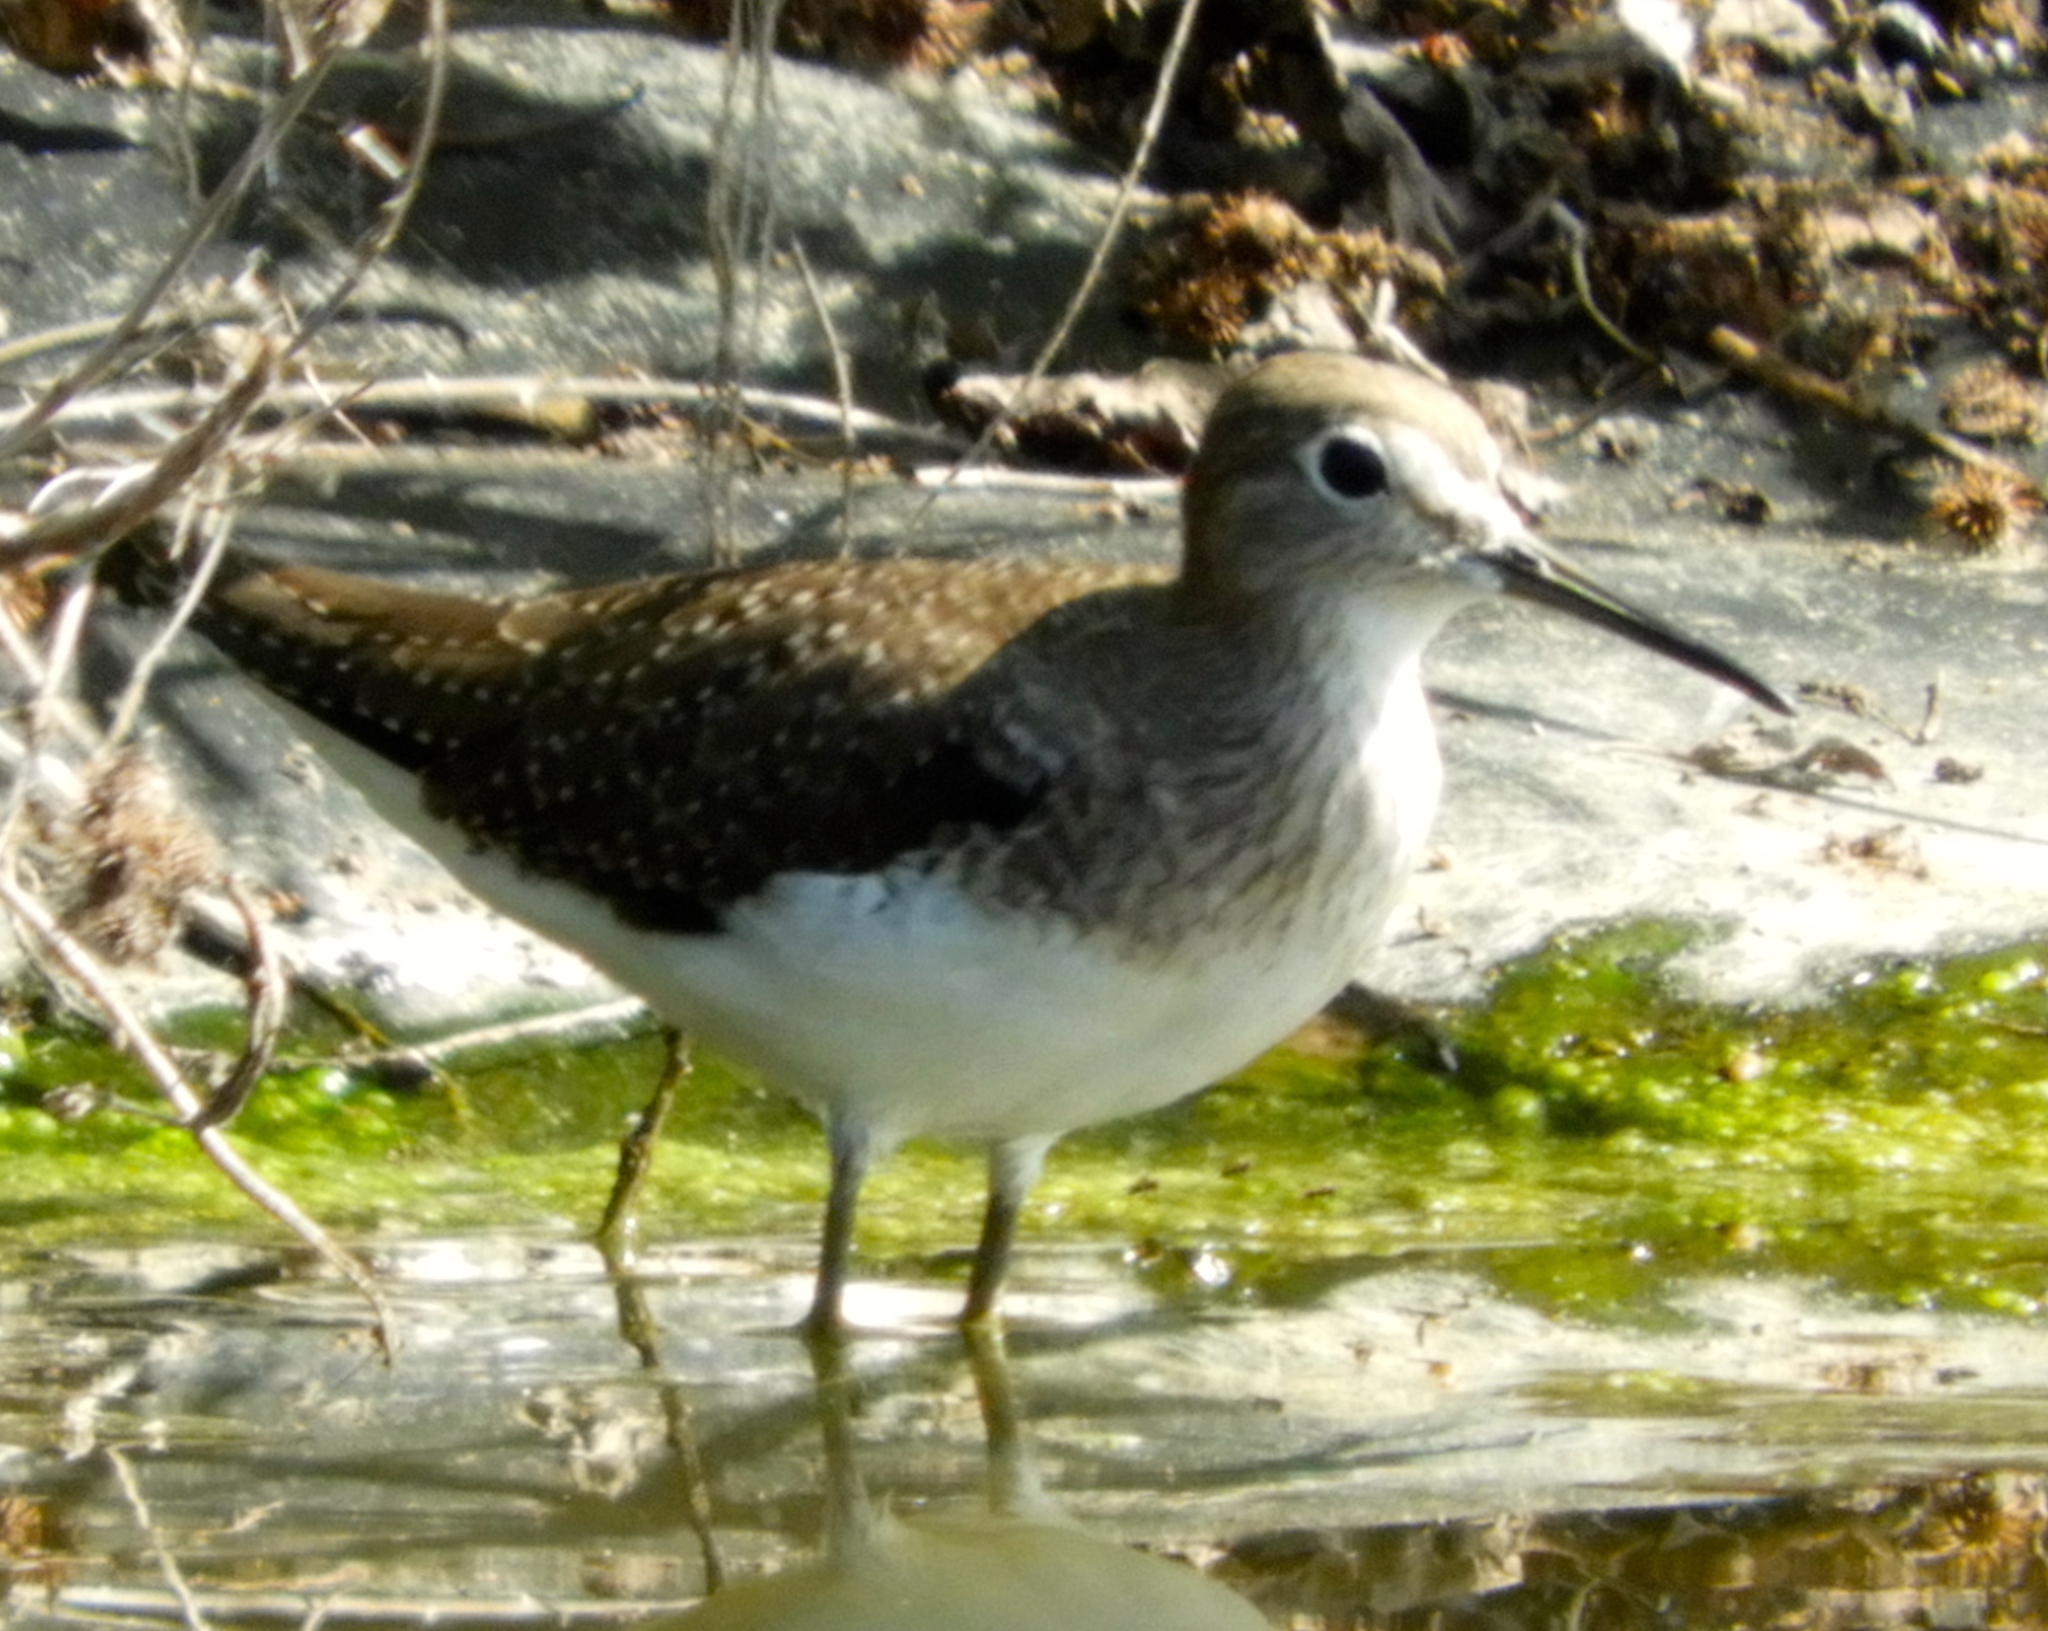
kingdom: Animalia
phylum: Chordata
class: Aves
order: Charadriiformes
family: Scolopacidae
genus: Tringa
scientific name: Tringa solitaria
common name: Solitary sandpiper
